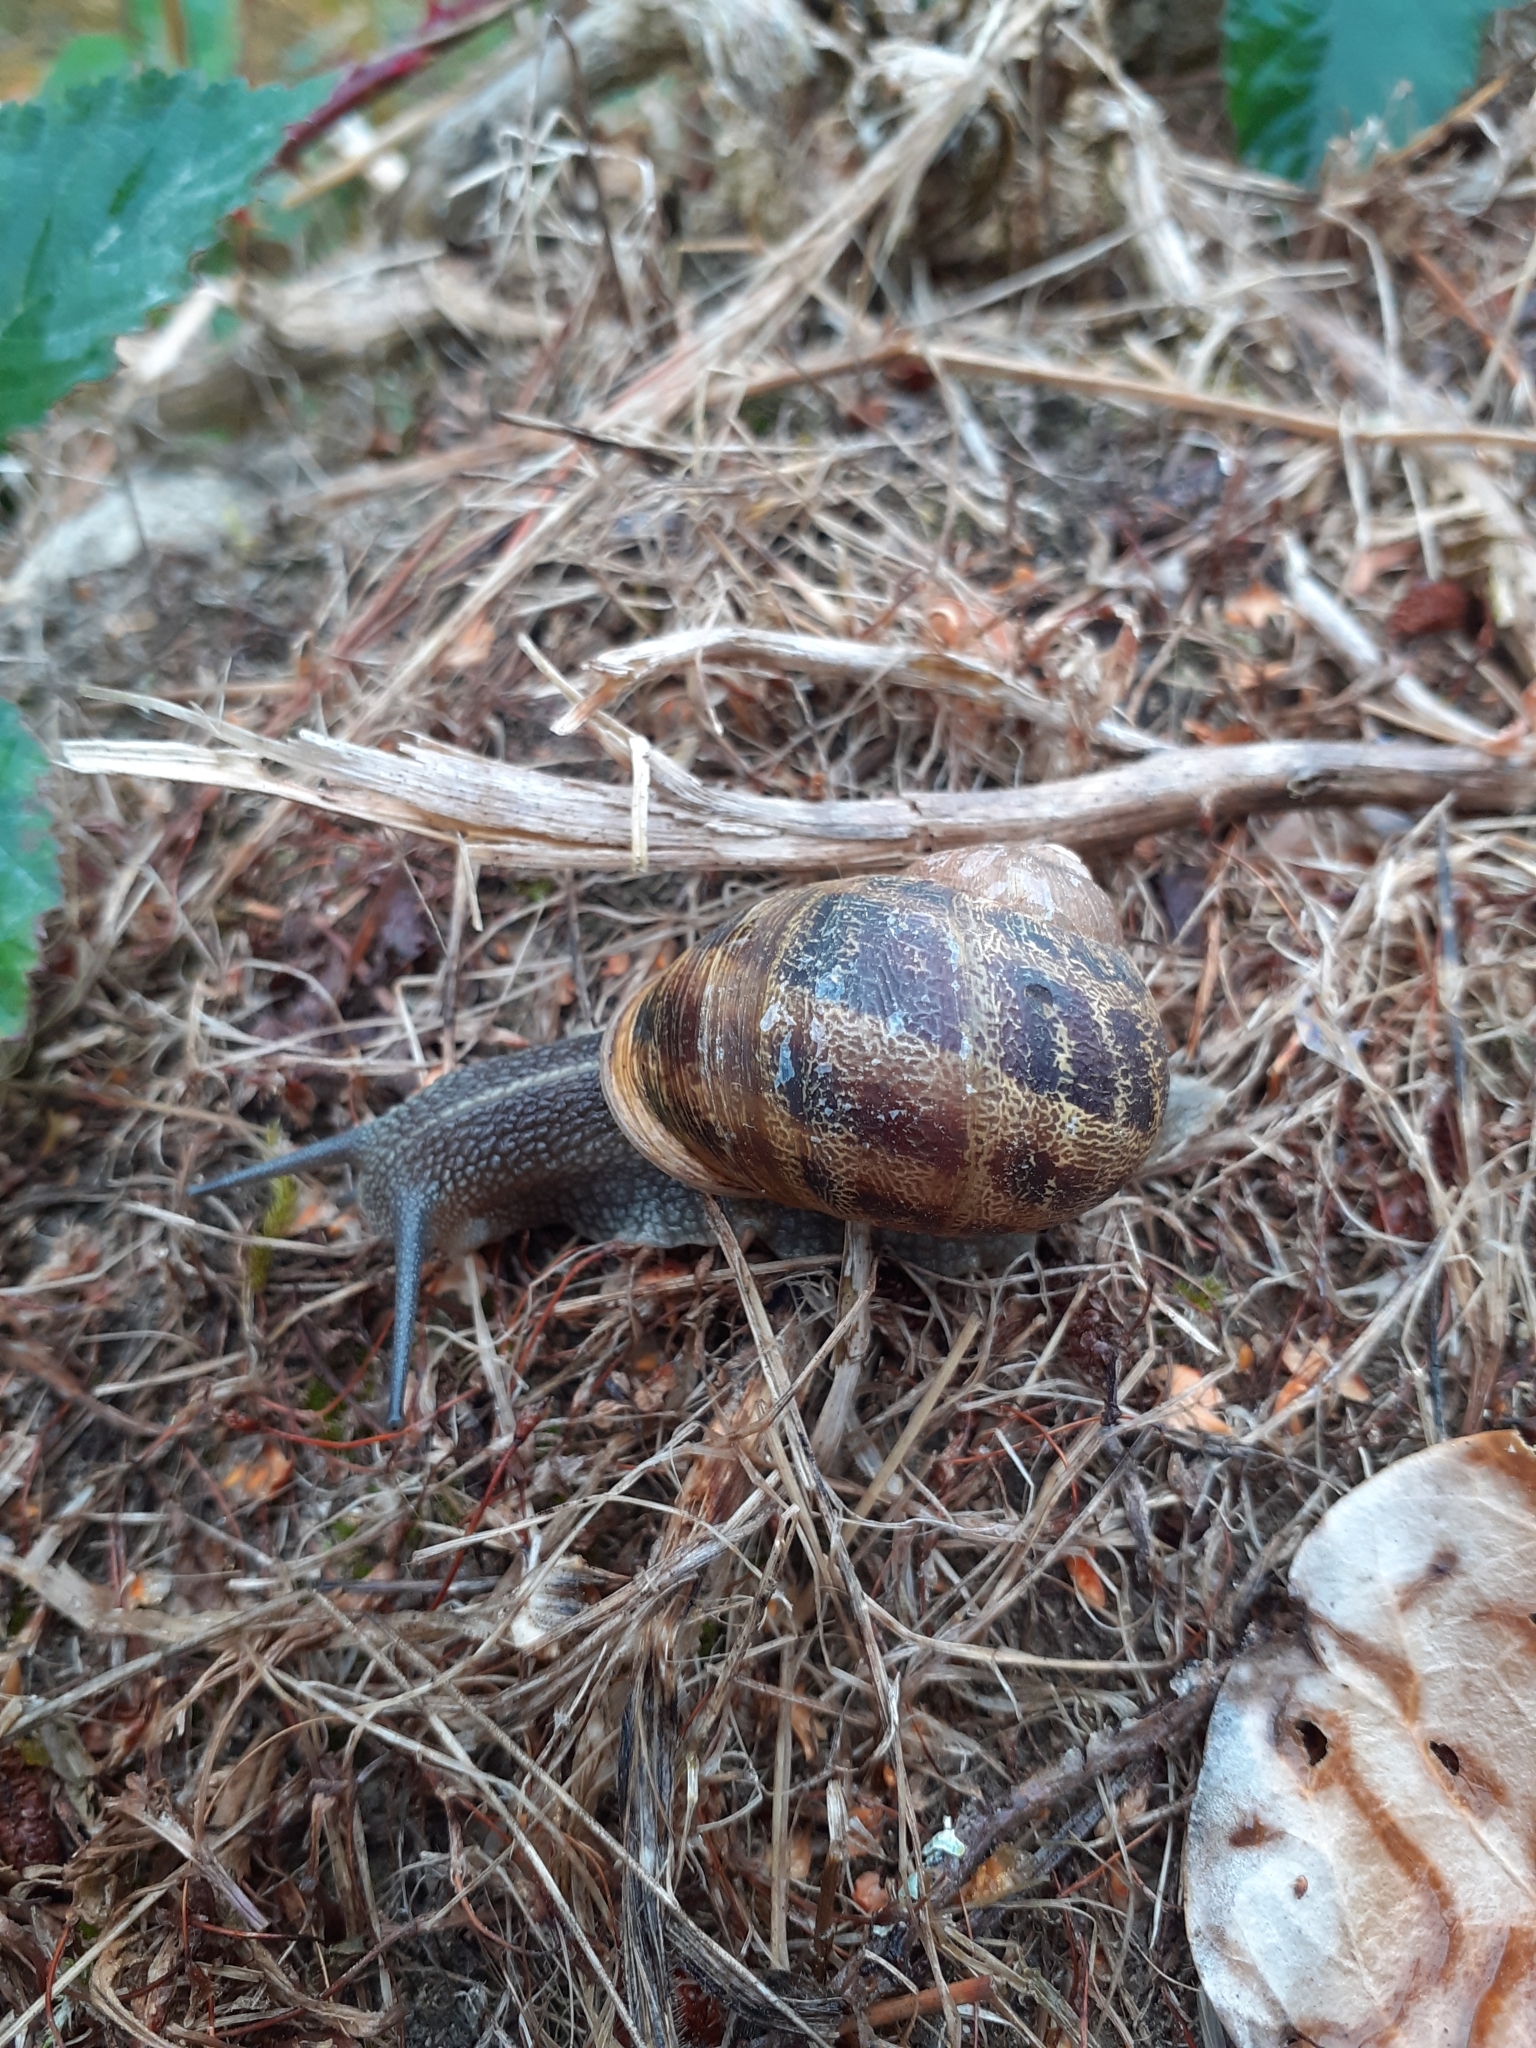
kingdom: Animalia
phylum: Mollusca
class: Gastropoda
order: Stylommatophora
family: Helicidae
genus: Cornu
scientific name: Cornu aspersum
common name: Brown garden snail
